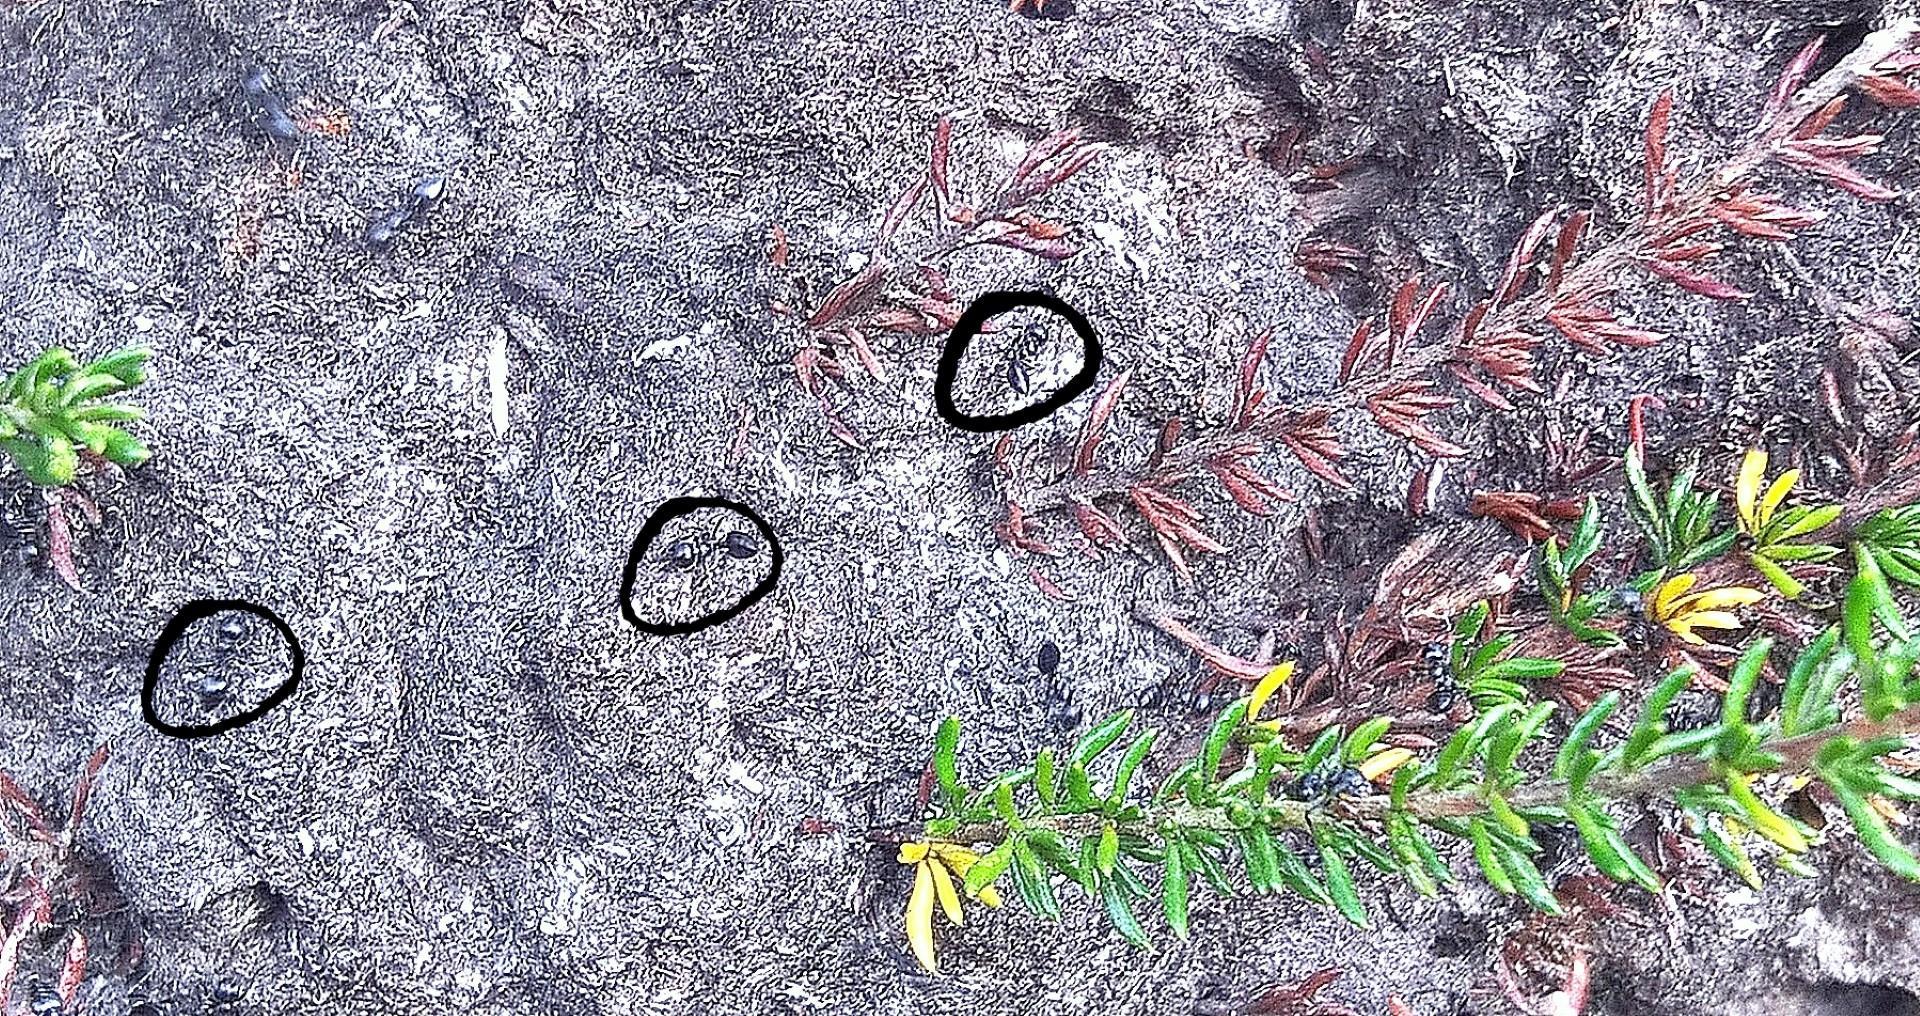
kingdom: Animalia
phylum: Arthropoda
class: Insecta
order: Hymenoptera
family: Formicidae
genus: Crematogaster
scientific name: Crematogaster peringueyi
